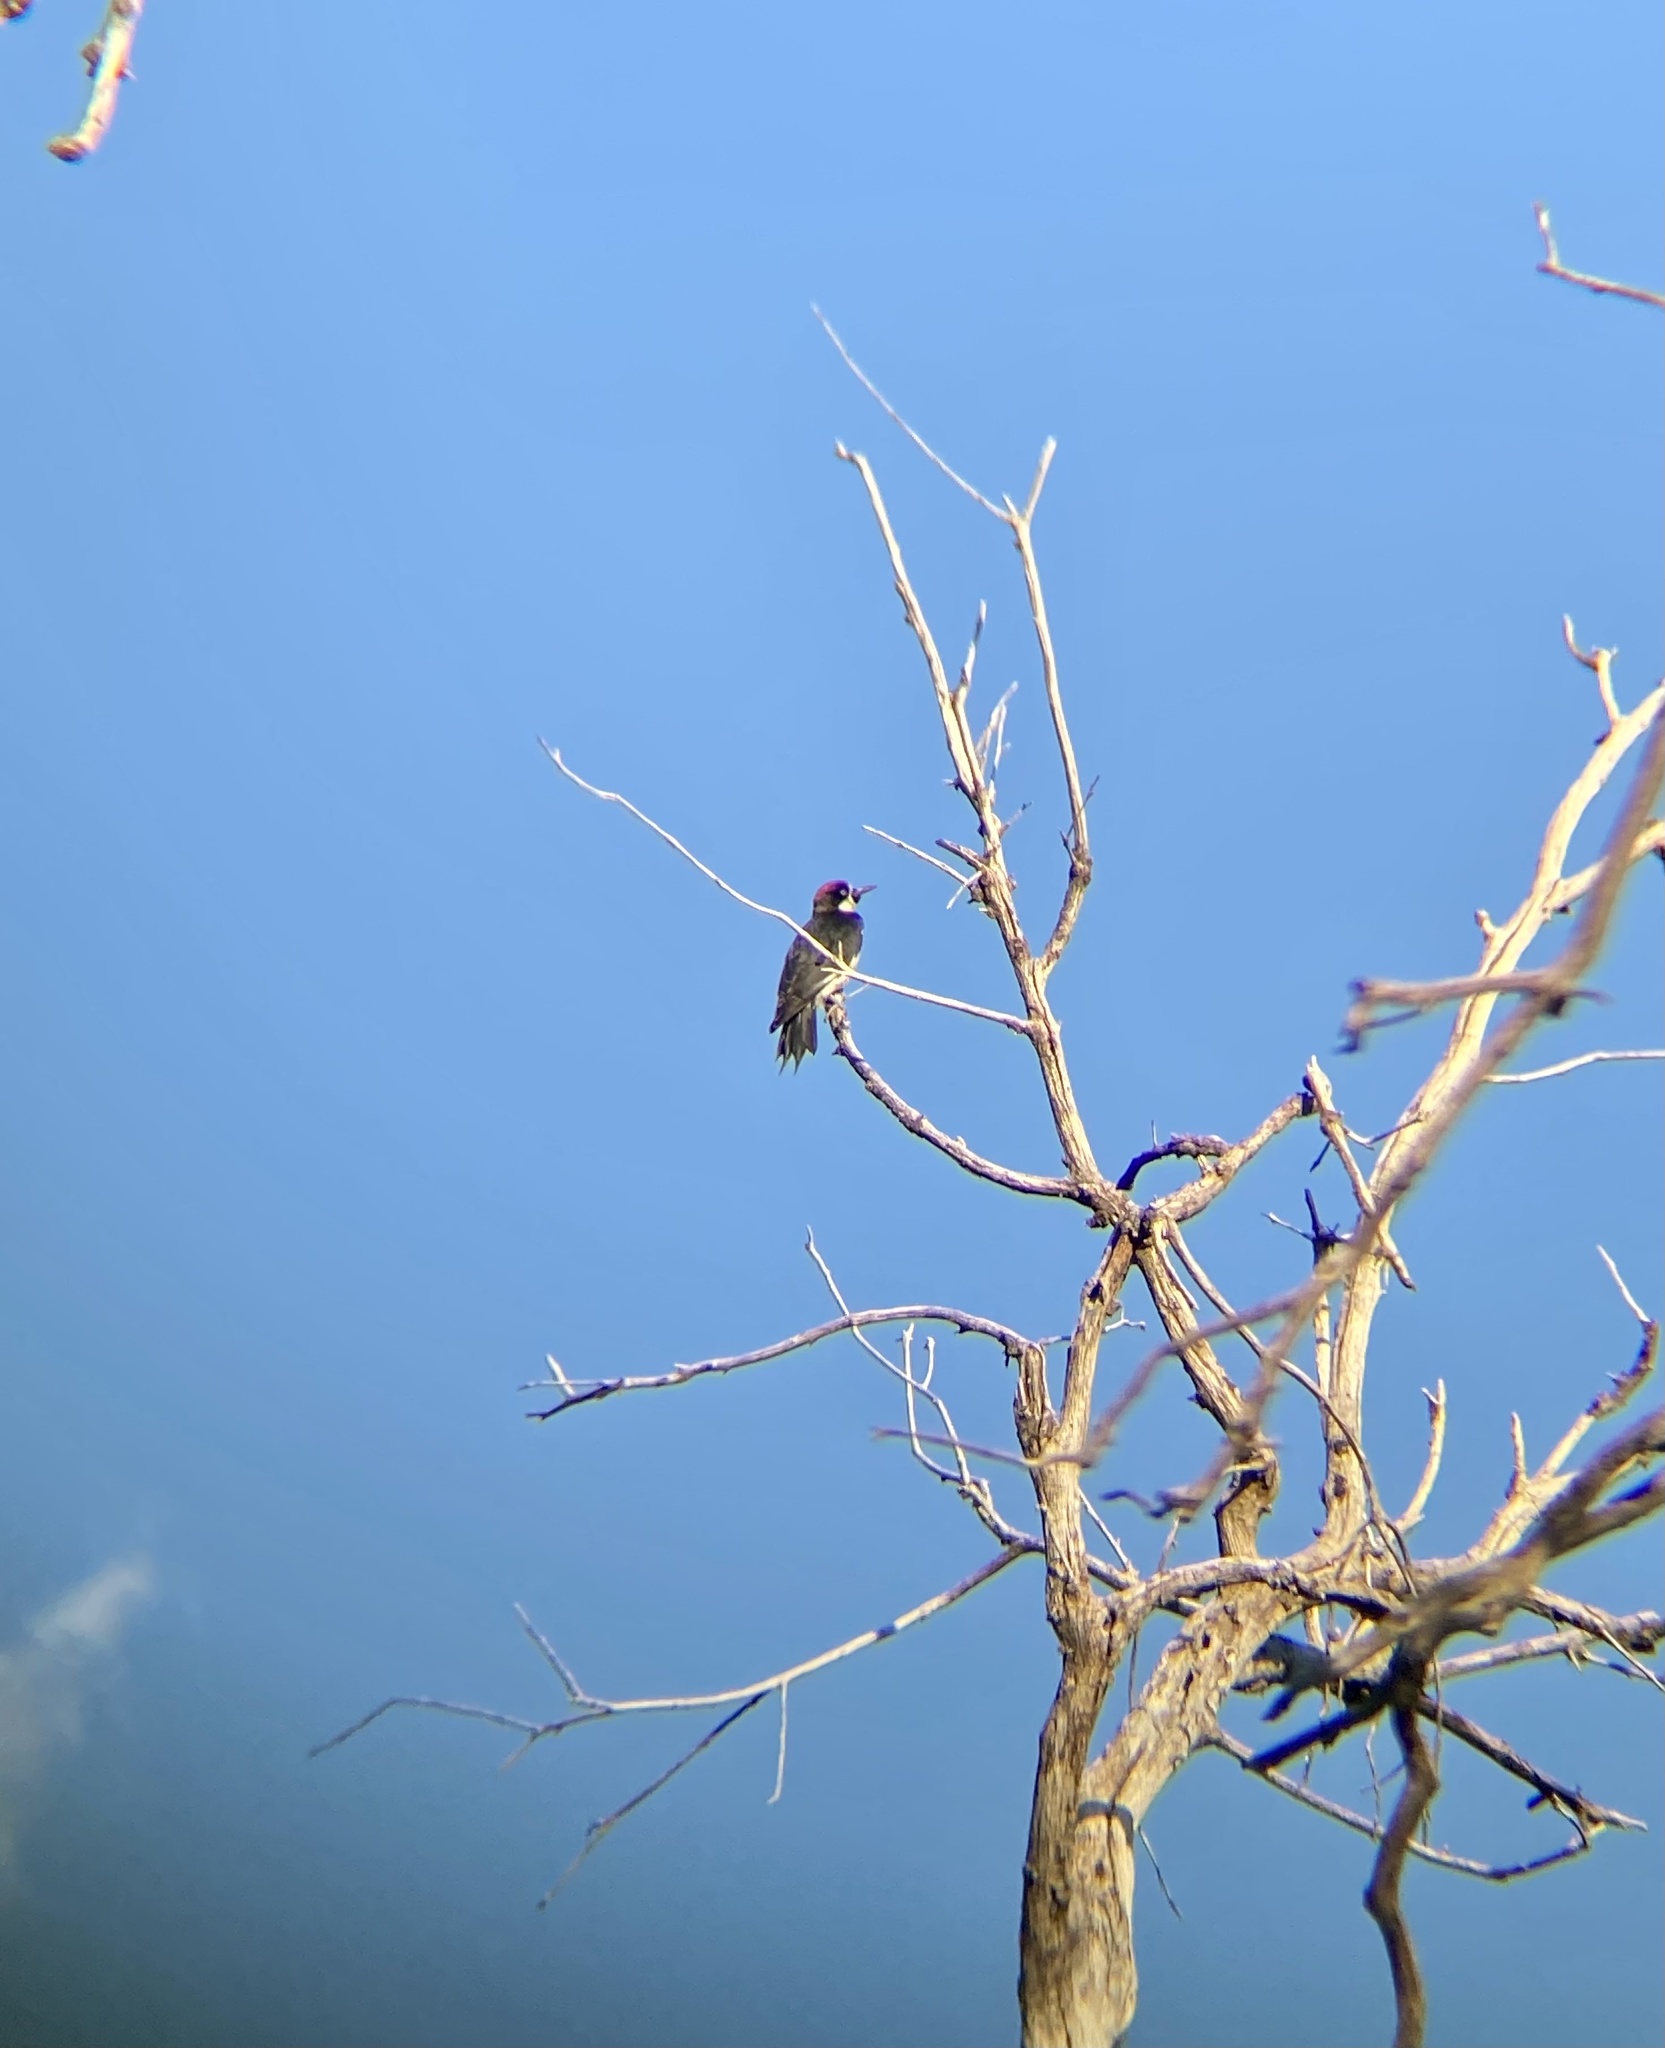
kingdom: Animalia
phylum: Chordata
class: Aves
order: Piciformes
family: Picidae
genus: Melanerpes
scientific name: Melanerpes formicivorus
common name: Acorn woodpecker
